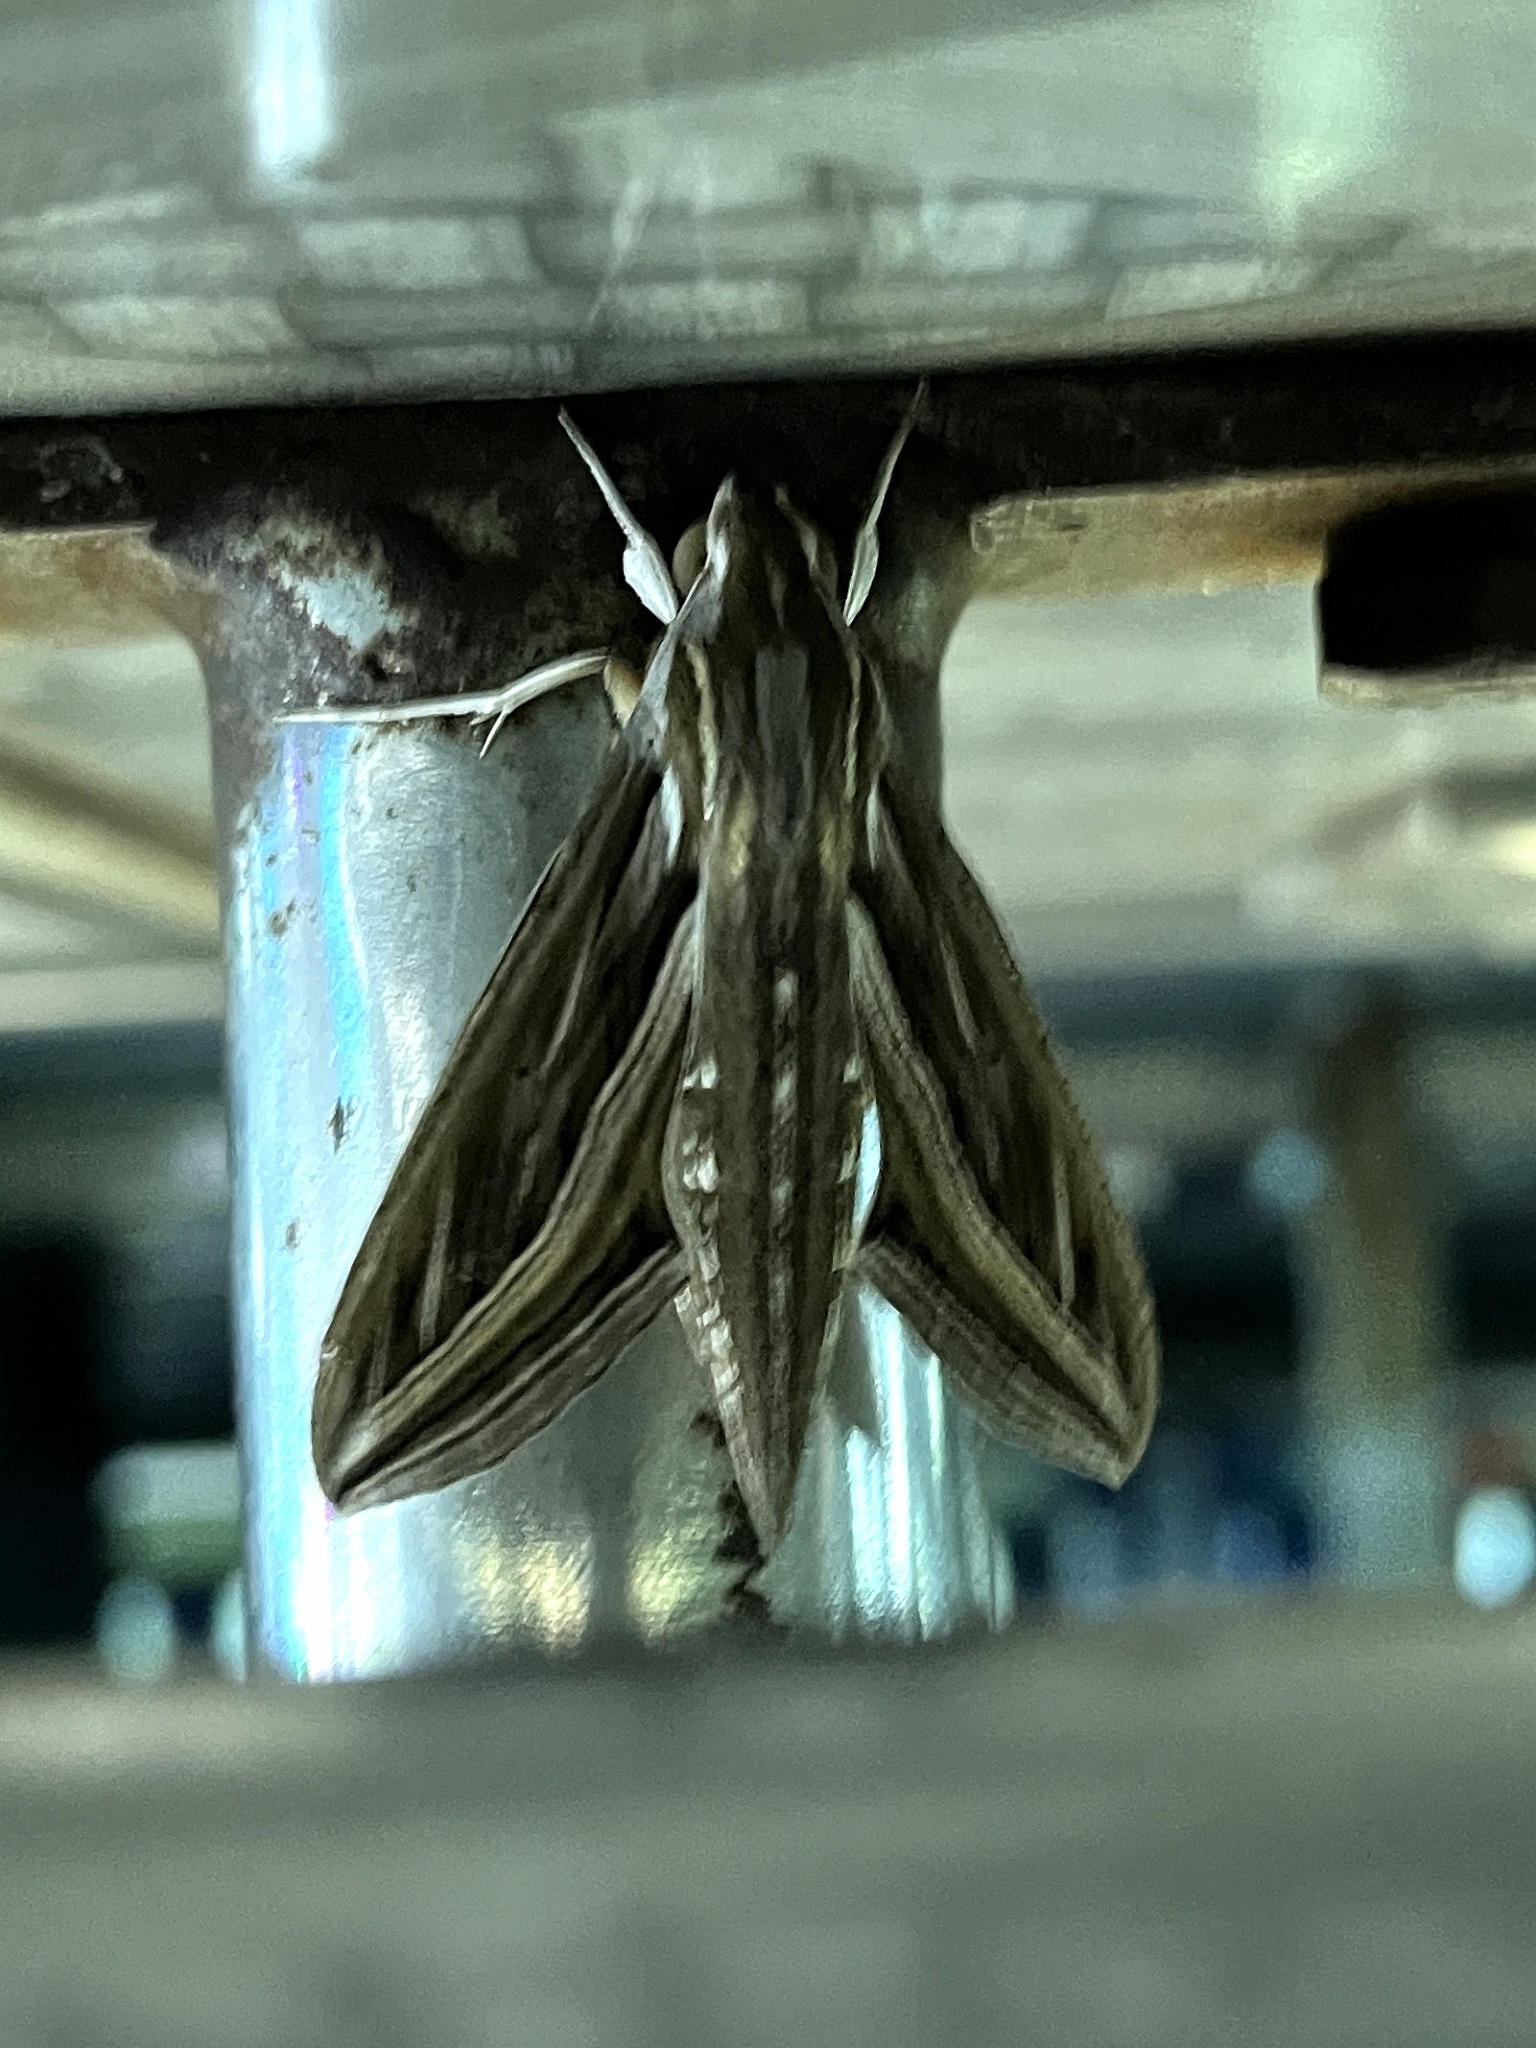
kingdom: Animalia
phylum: Arthropoda
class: Insecta
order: Lepidoptera
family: Sphingidae
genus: Hippotion
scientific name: Hippotion celerio
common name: Silver-striped hawk-moth
